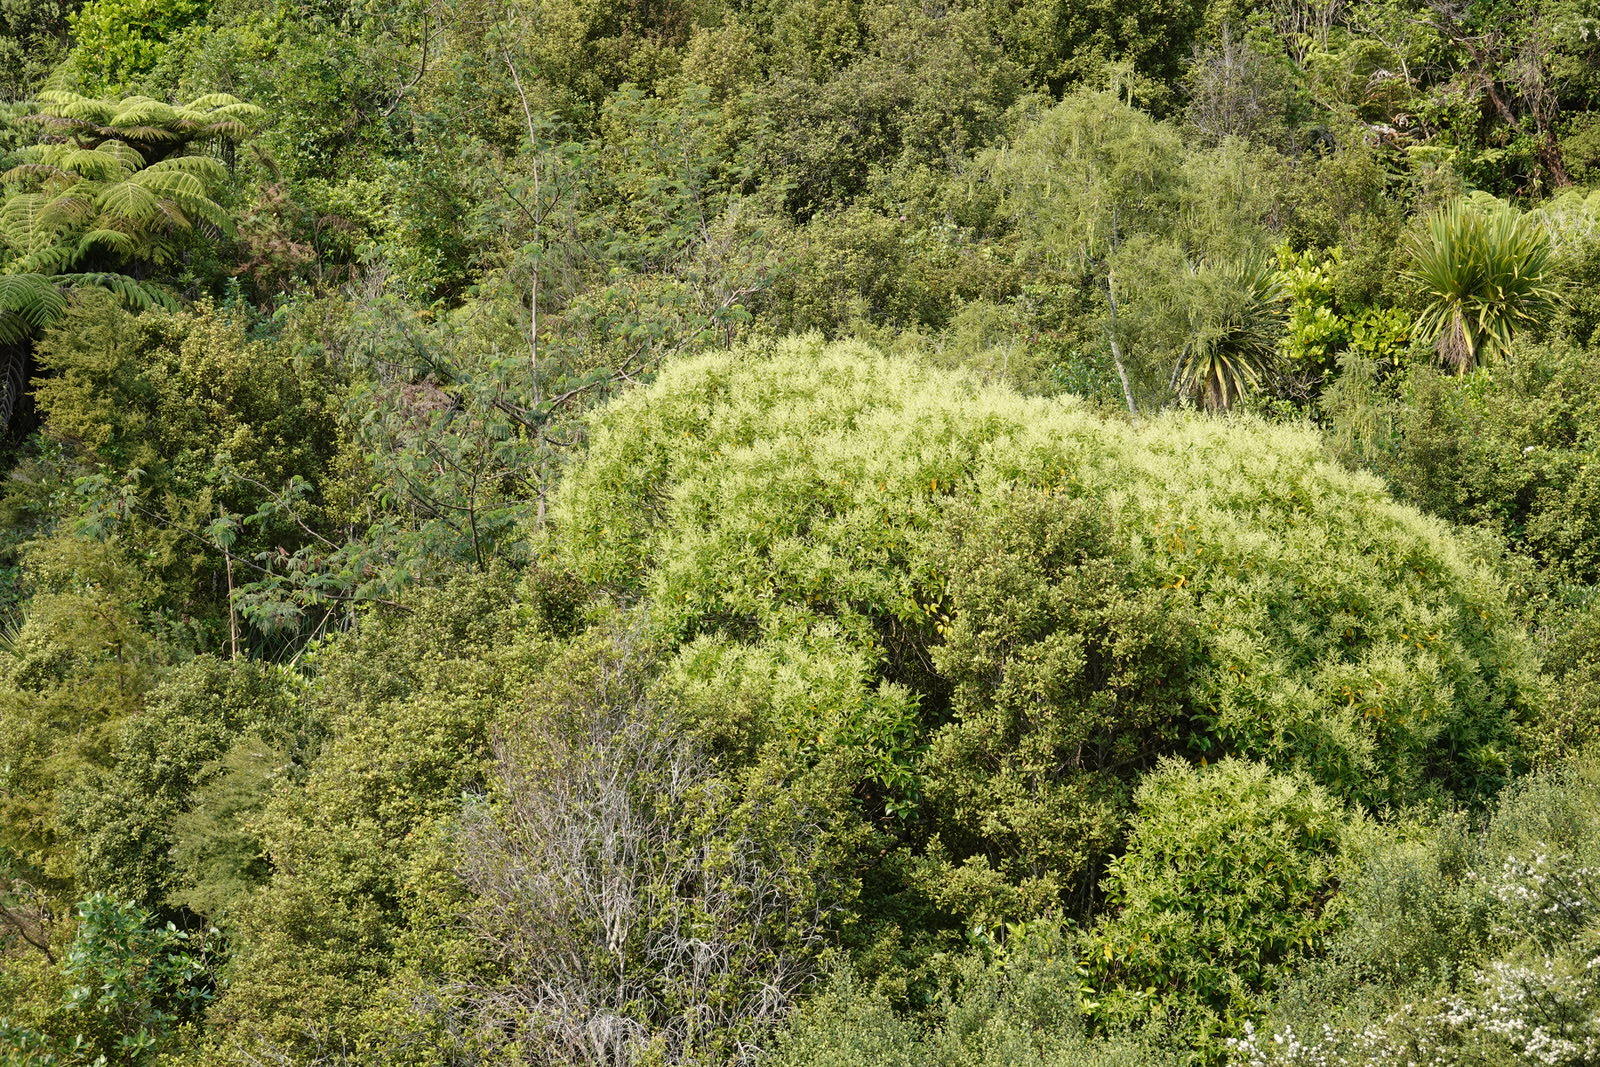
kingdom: Plantae
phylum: Tracheophyta
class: Magnoliopsida
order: Lamiales
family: Oleaceae
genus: Ligustrum
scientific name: Ligustrum lucidum
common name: Glossy privet
